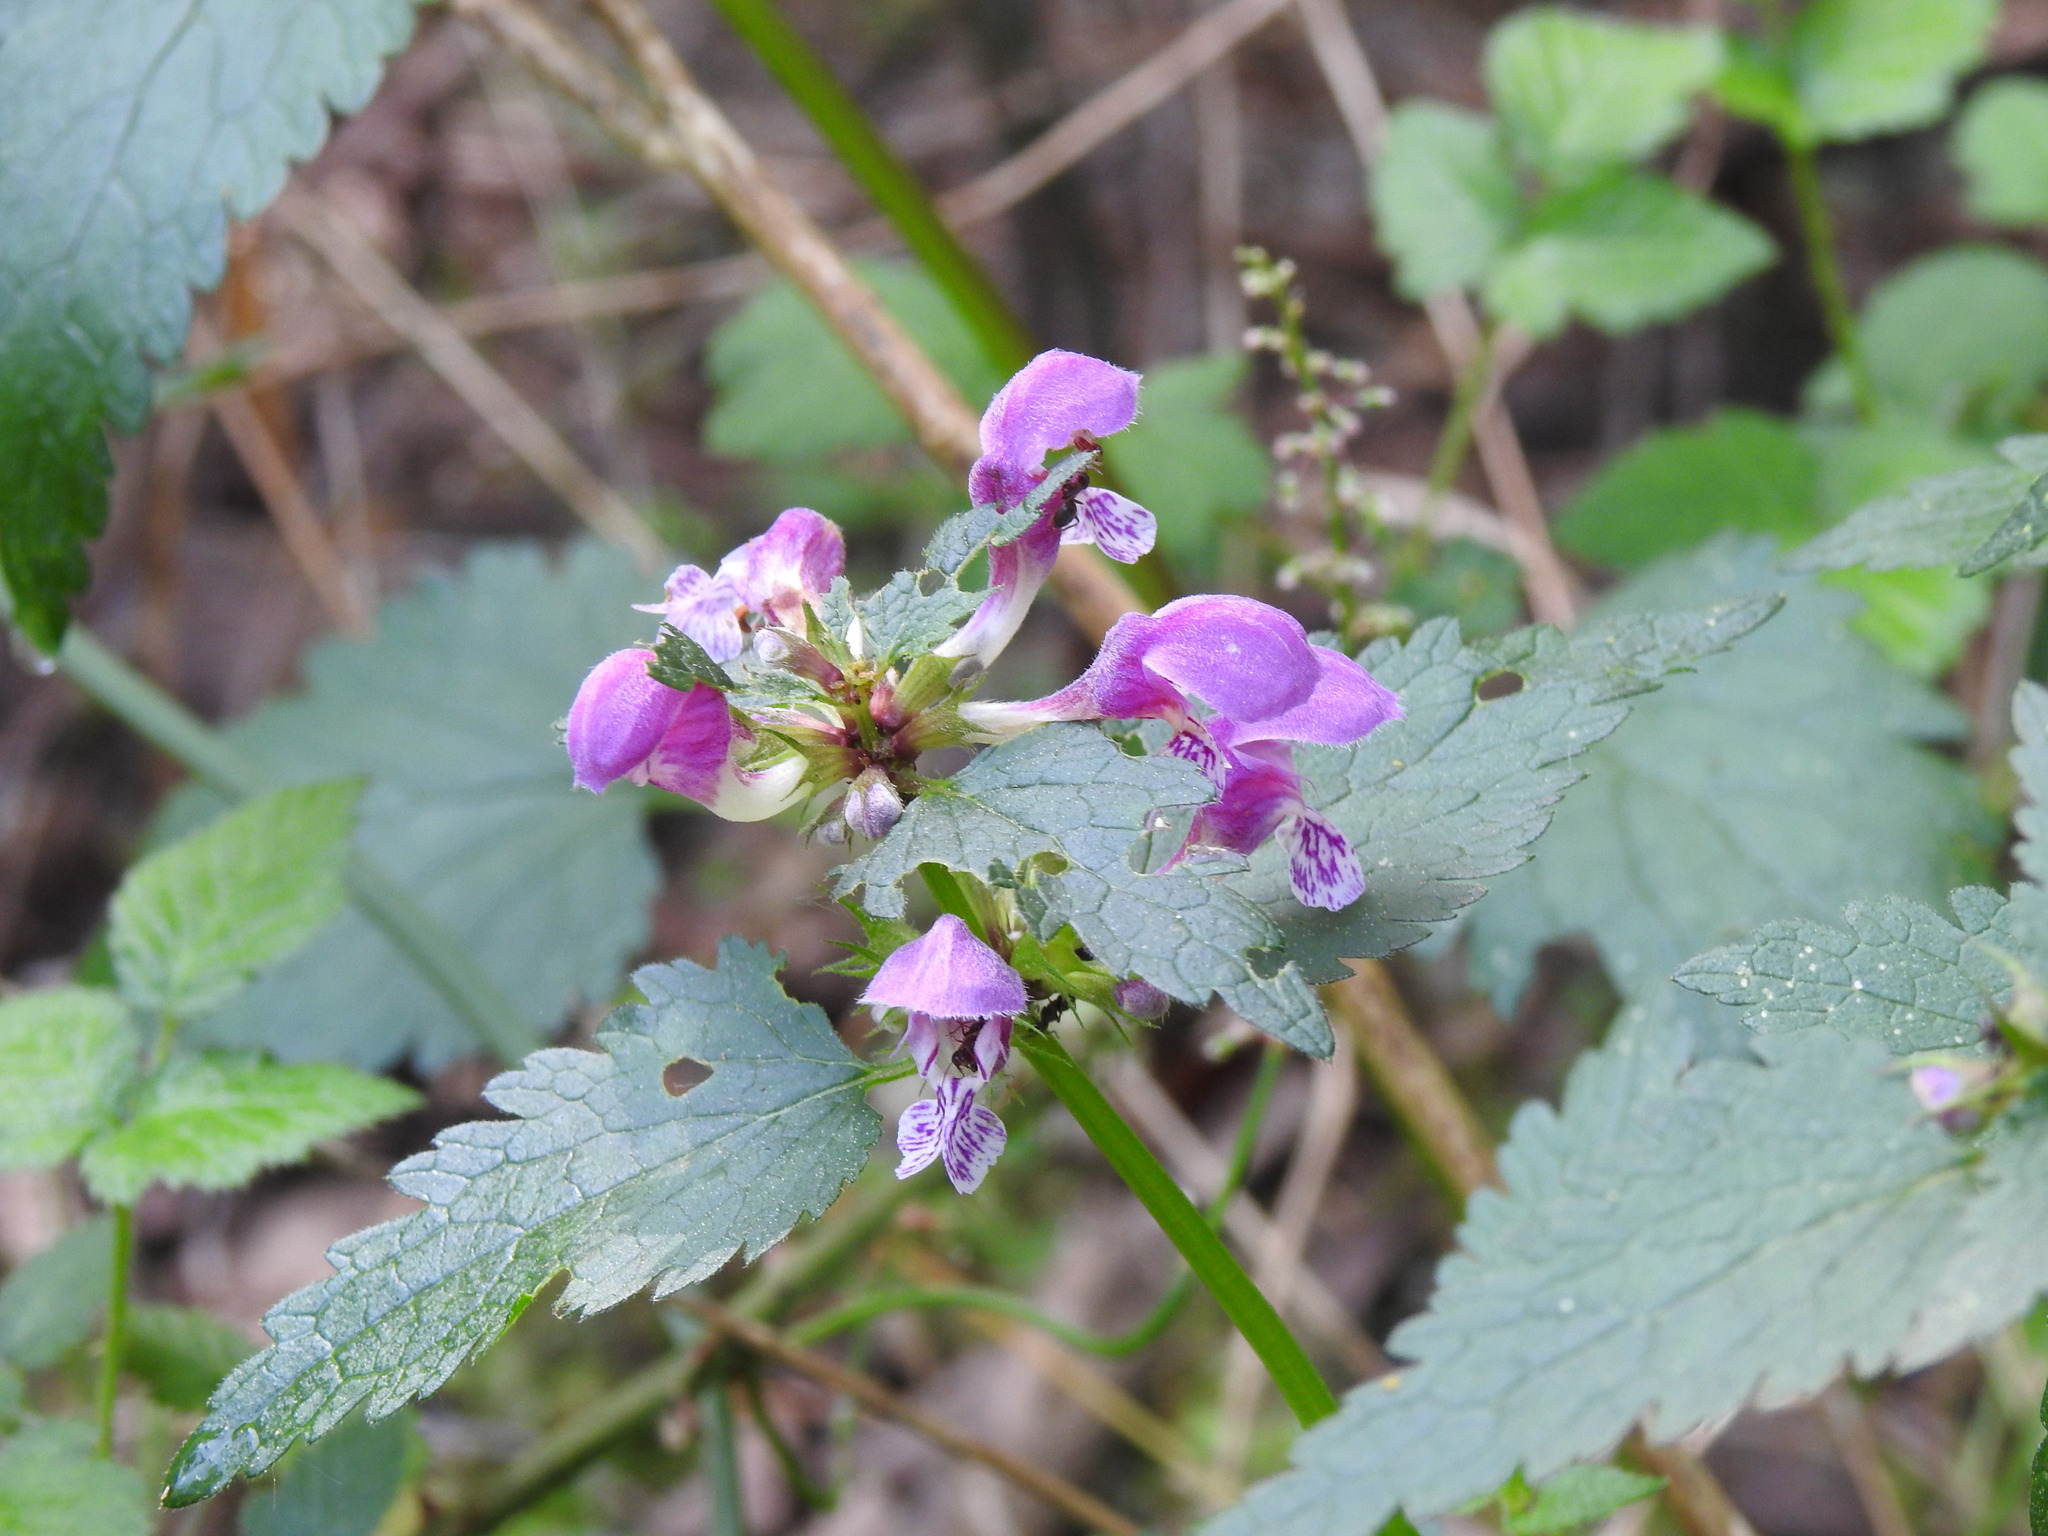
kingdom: Plantae
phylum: Tracheophyta
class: Magnoliopsida
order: Lamiales
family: Lamiaceae
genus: Lamium
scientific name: Lamium maculatum
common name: Spotted dead-nettle
